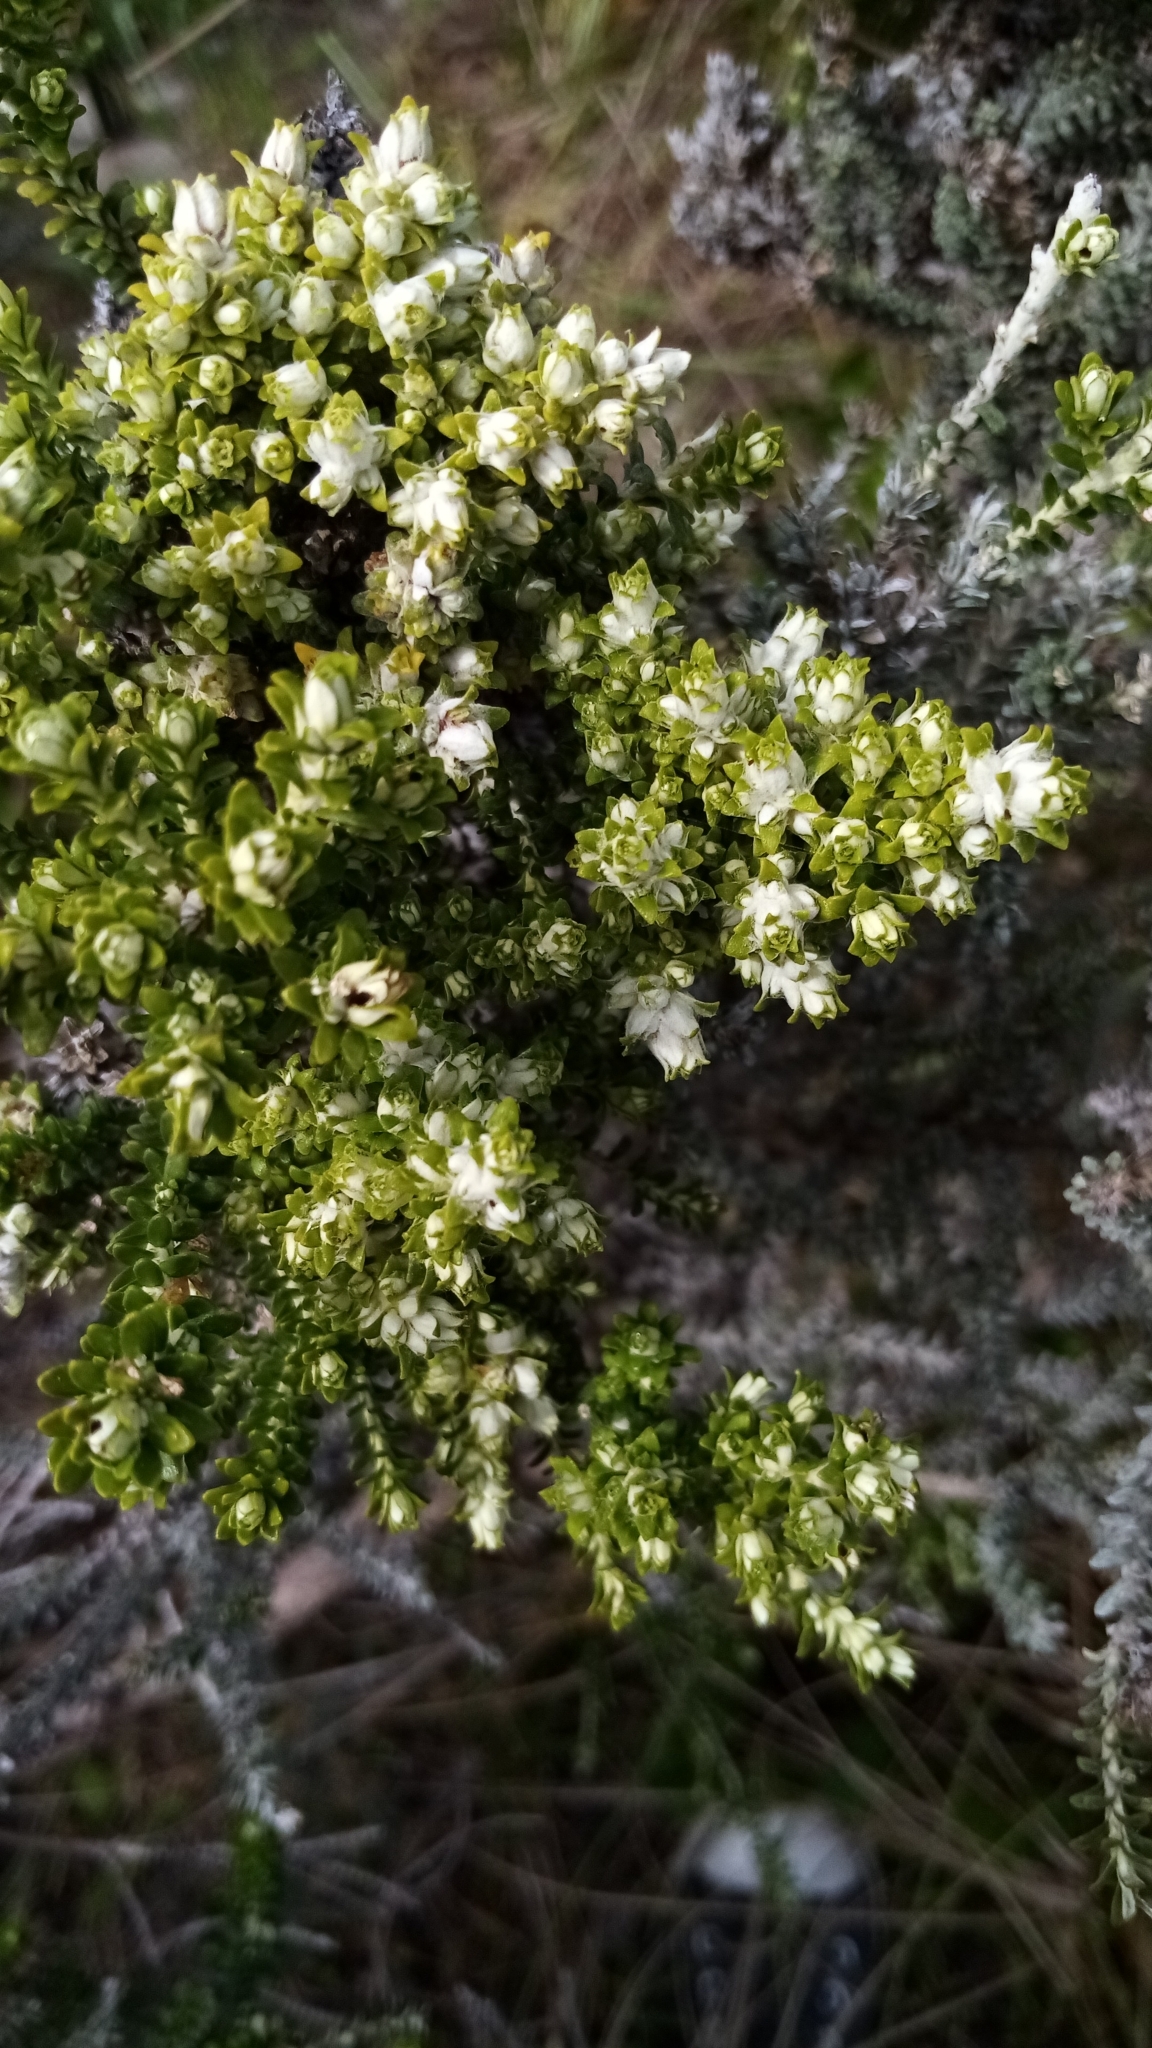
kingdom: Plantae
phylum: Tracheophyta
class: Magnoliopsida
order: Asterales
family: Asteraceae
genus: Ozothamnus
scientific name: Ozothamnus leptophyllus
